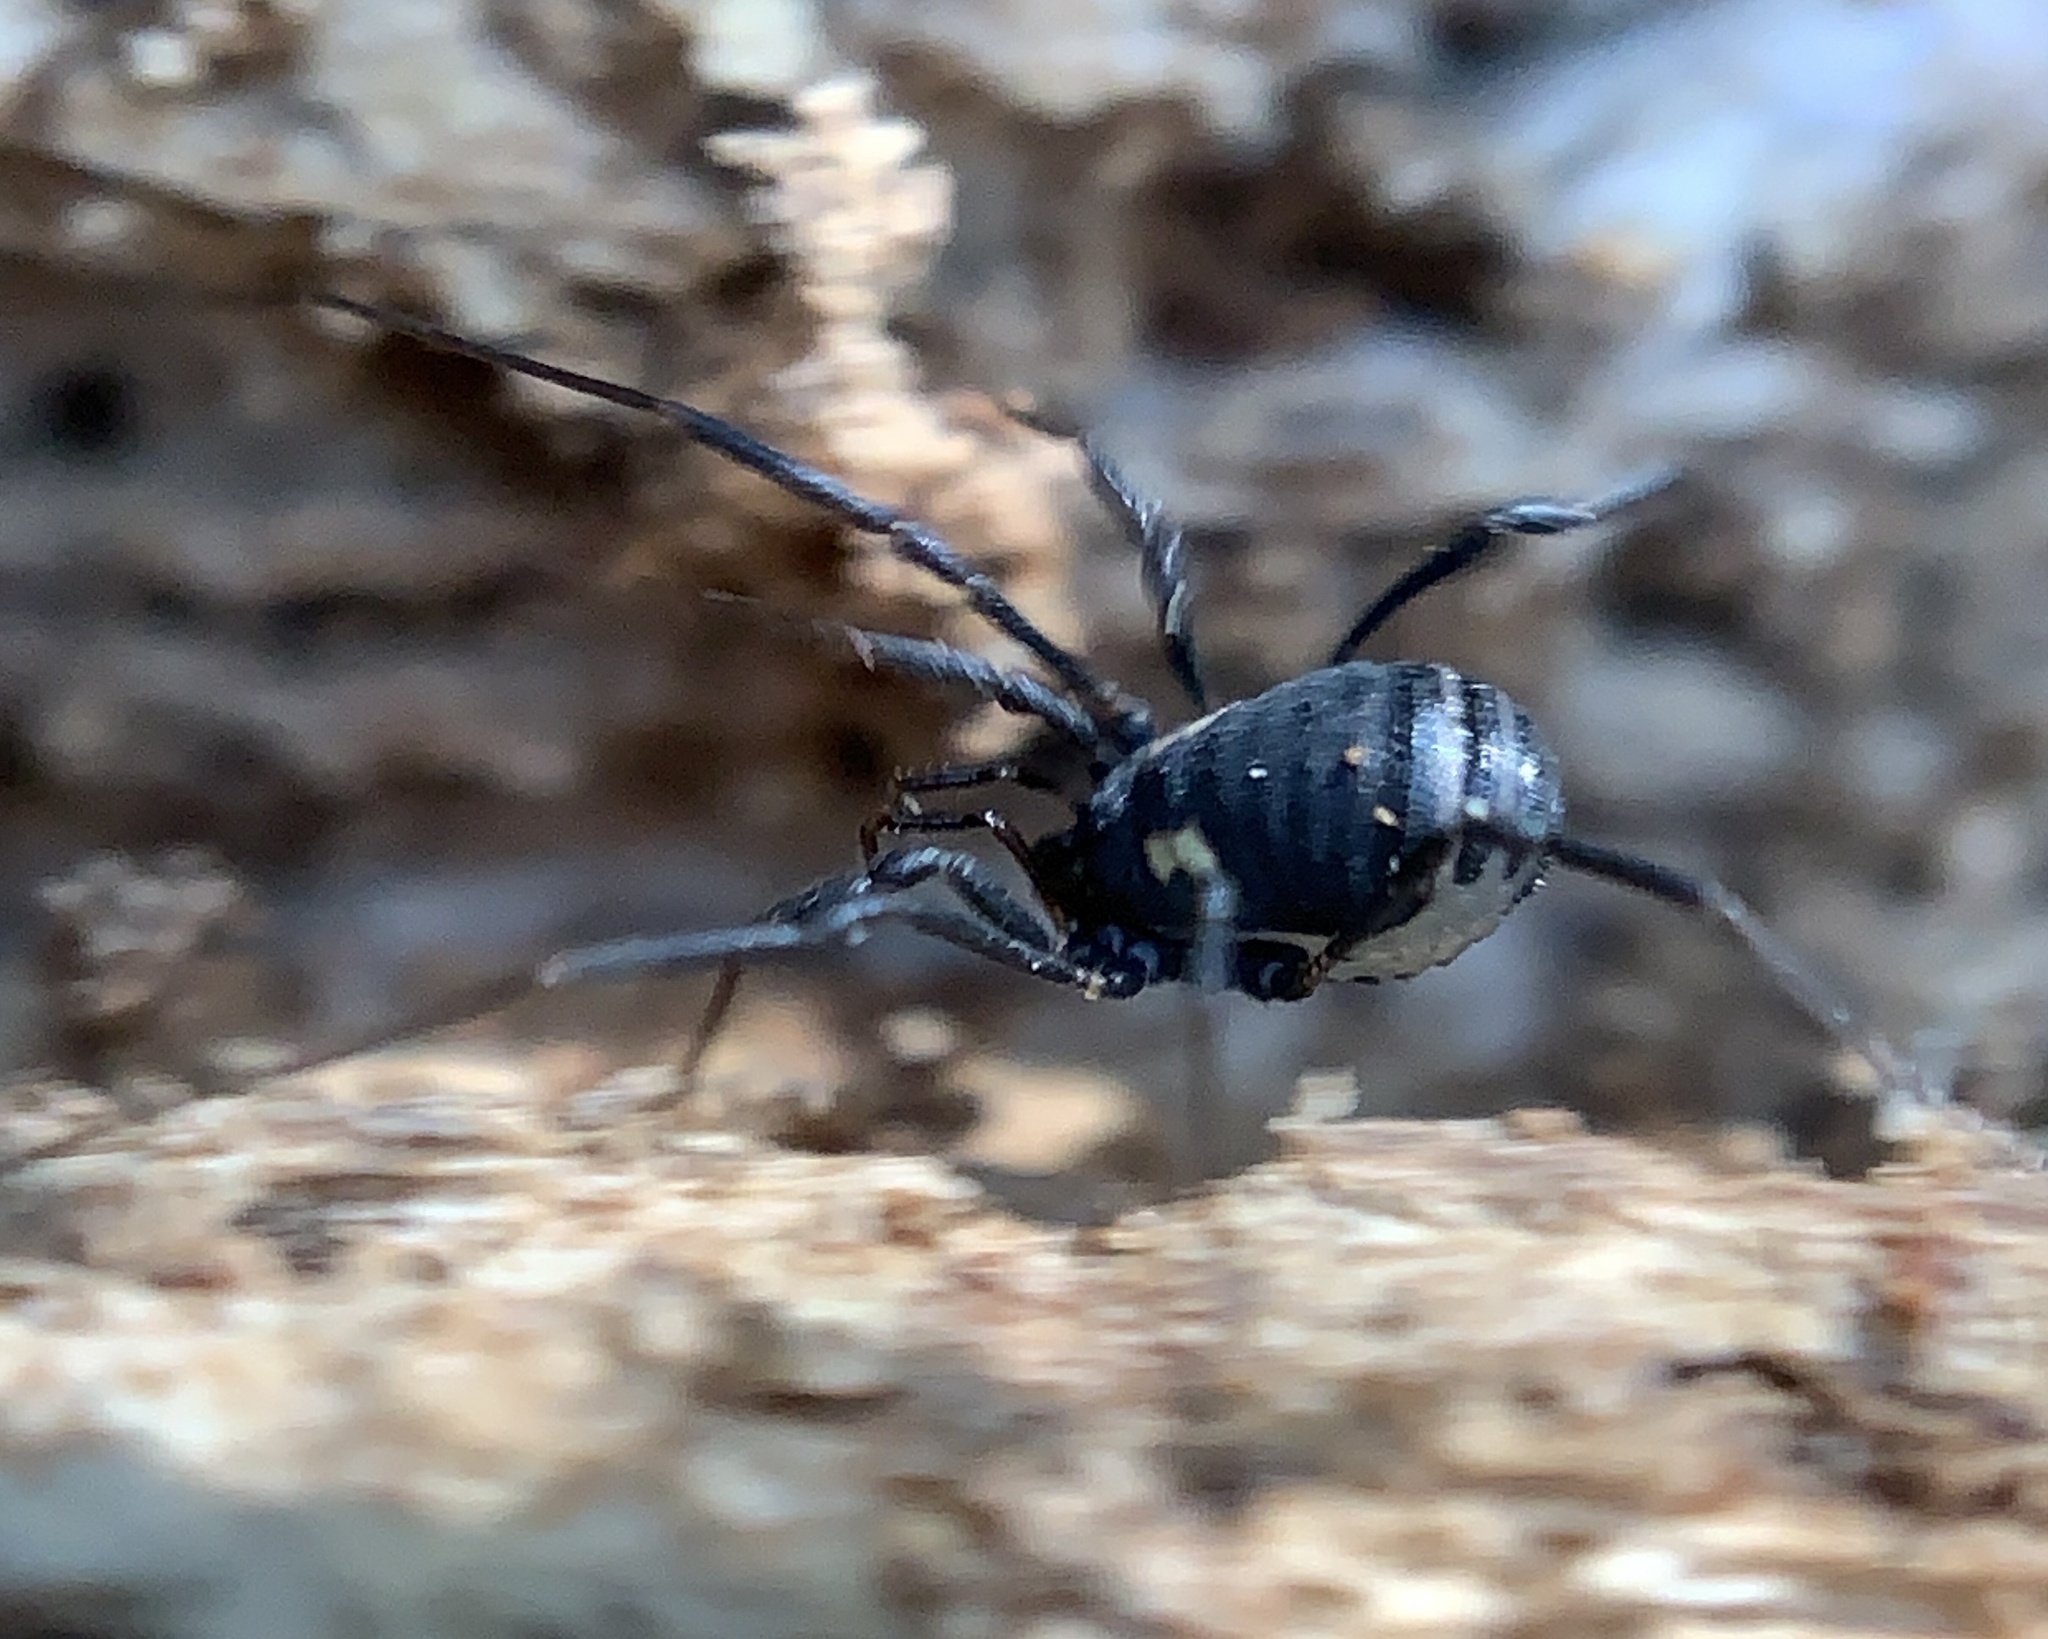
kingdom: Animalia
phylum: Arthropoda
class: Arachnida
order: Opiliones
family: Nemastomatidae
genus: Nemastoma
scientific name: Nemastoma bimaculatum
